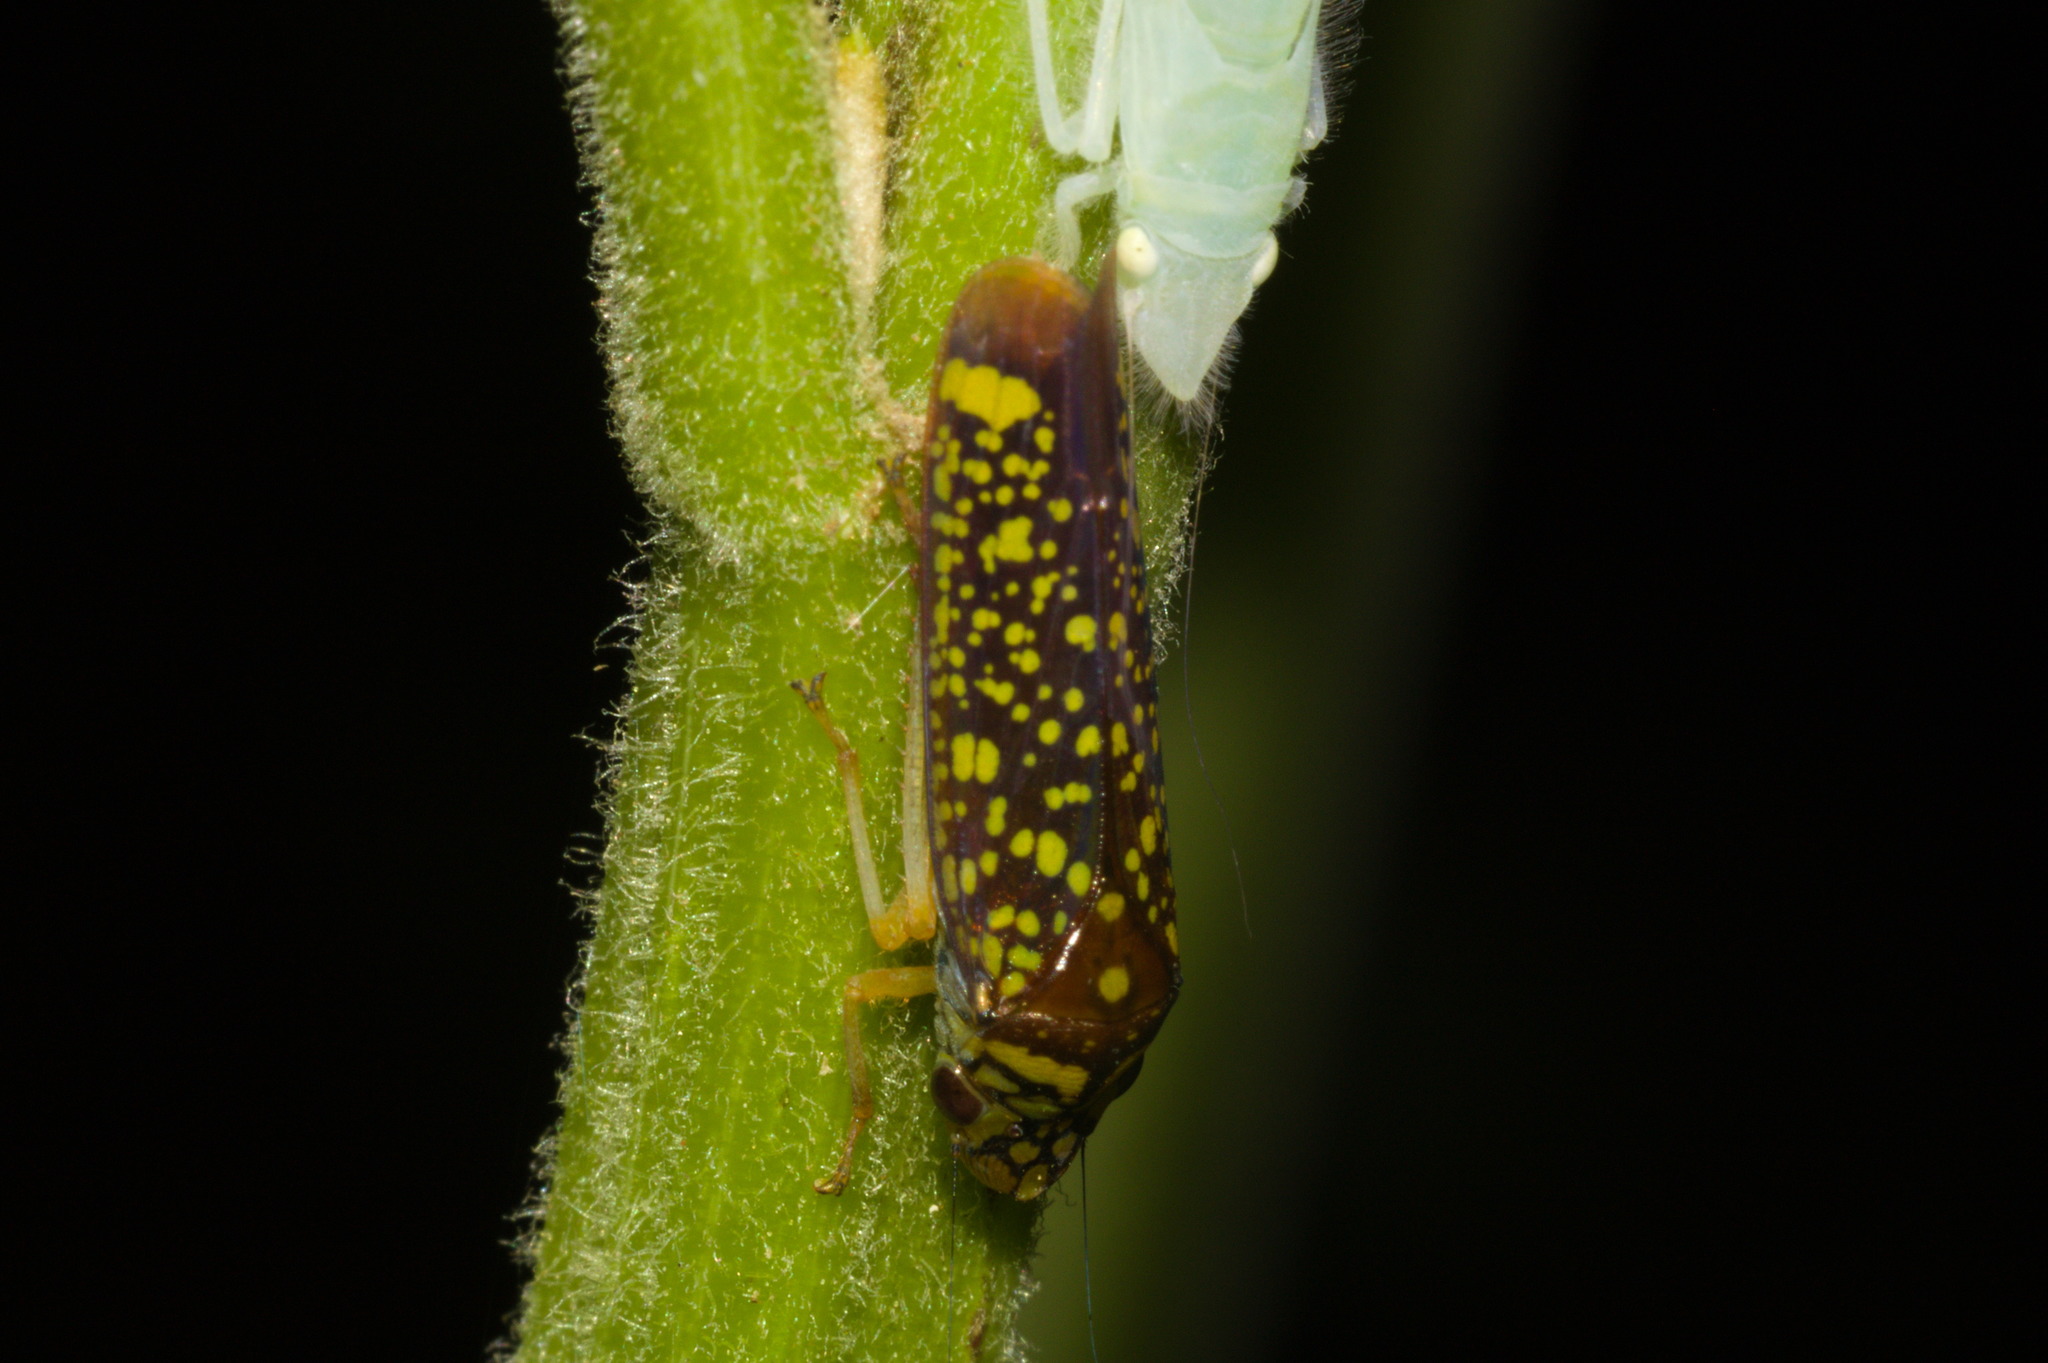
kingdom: Animalia
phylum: Arthropoda
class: Insecta
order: Hemiptera
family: Cicadellidae
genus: Aulacizes
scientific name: Aulacizes conspersa
